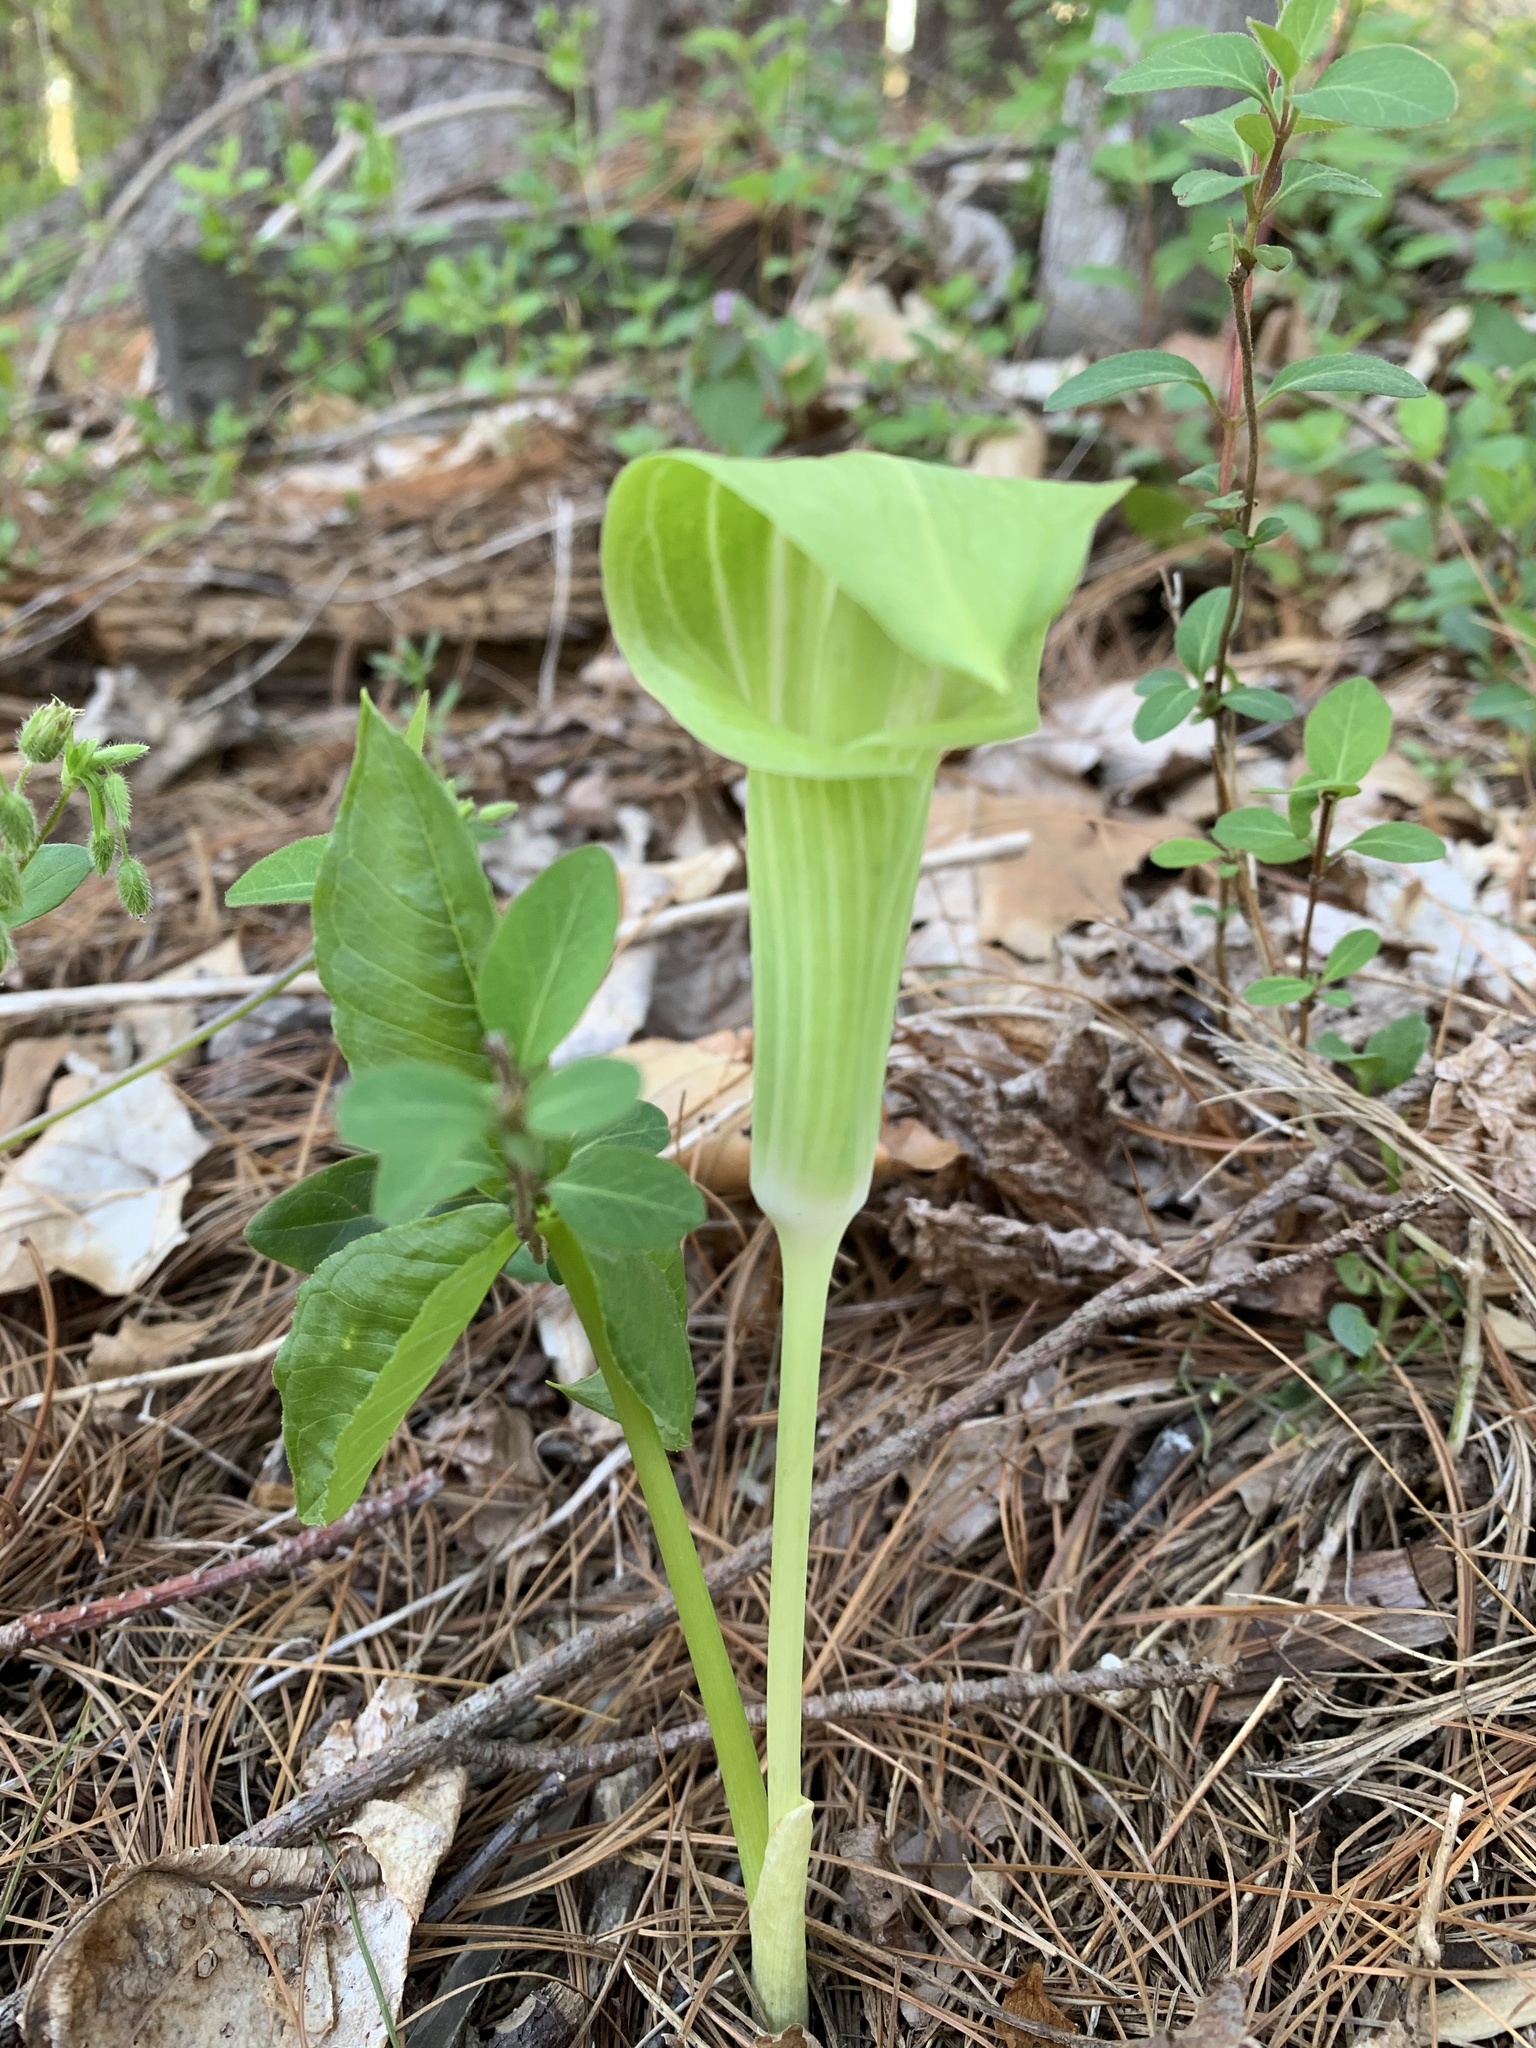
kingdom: Plantae
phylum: Tracheophyta
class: Liliopsida
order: Alismatales
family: Araceae
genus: Arisaema
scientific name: Arisaema triphyllum
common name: Jack-in-the-pulpit
